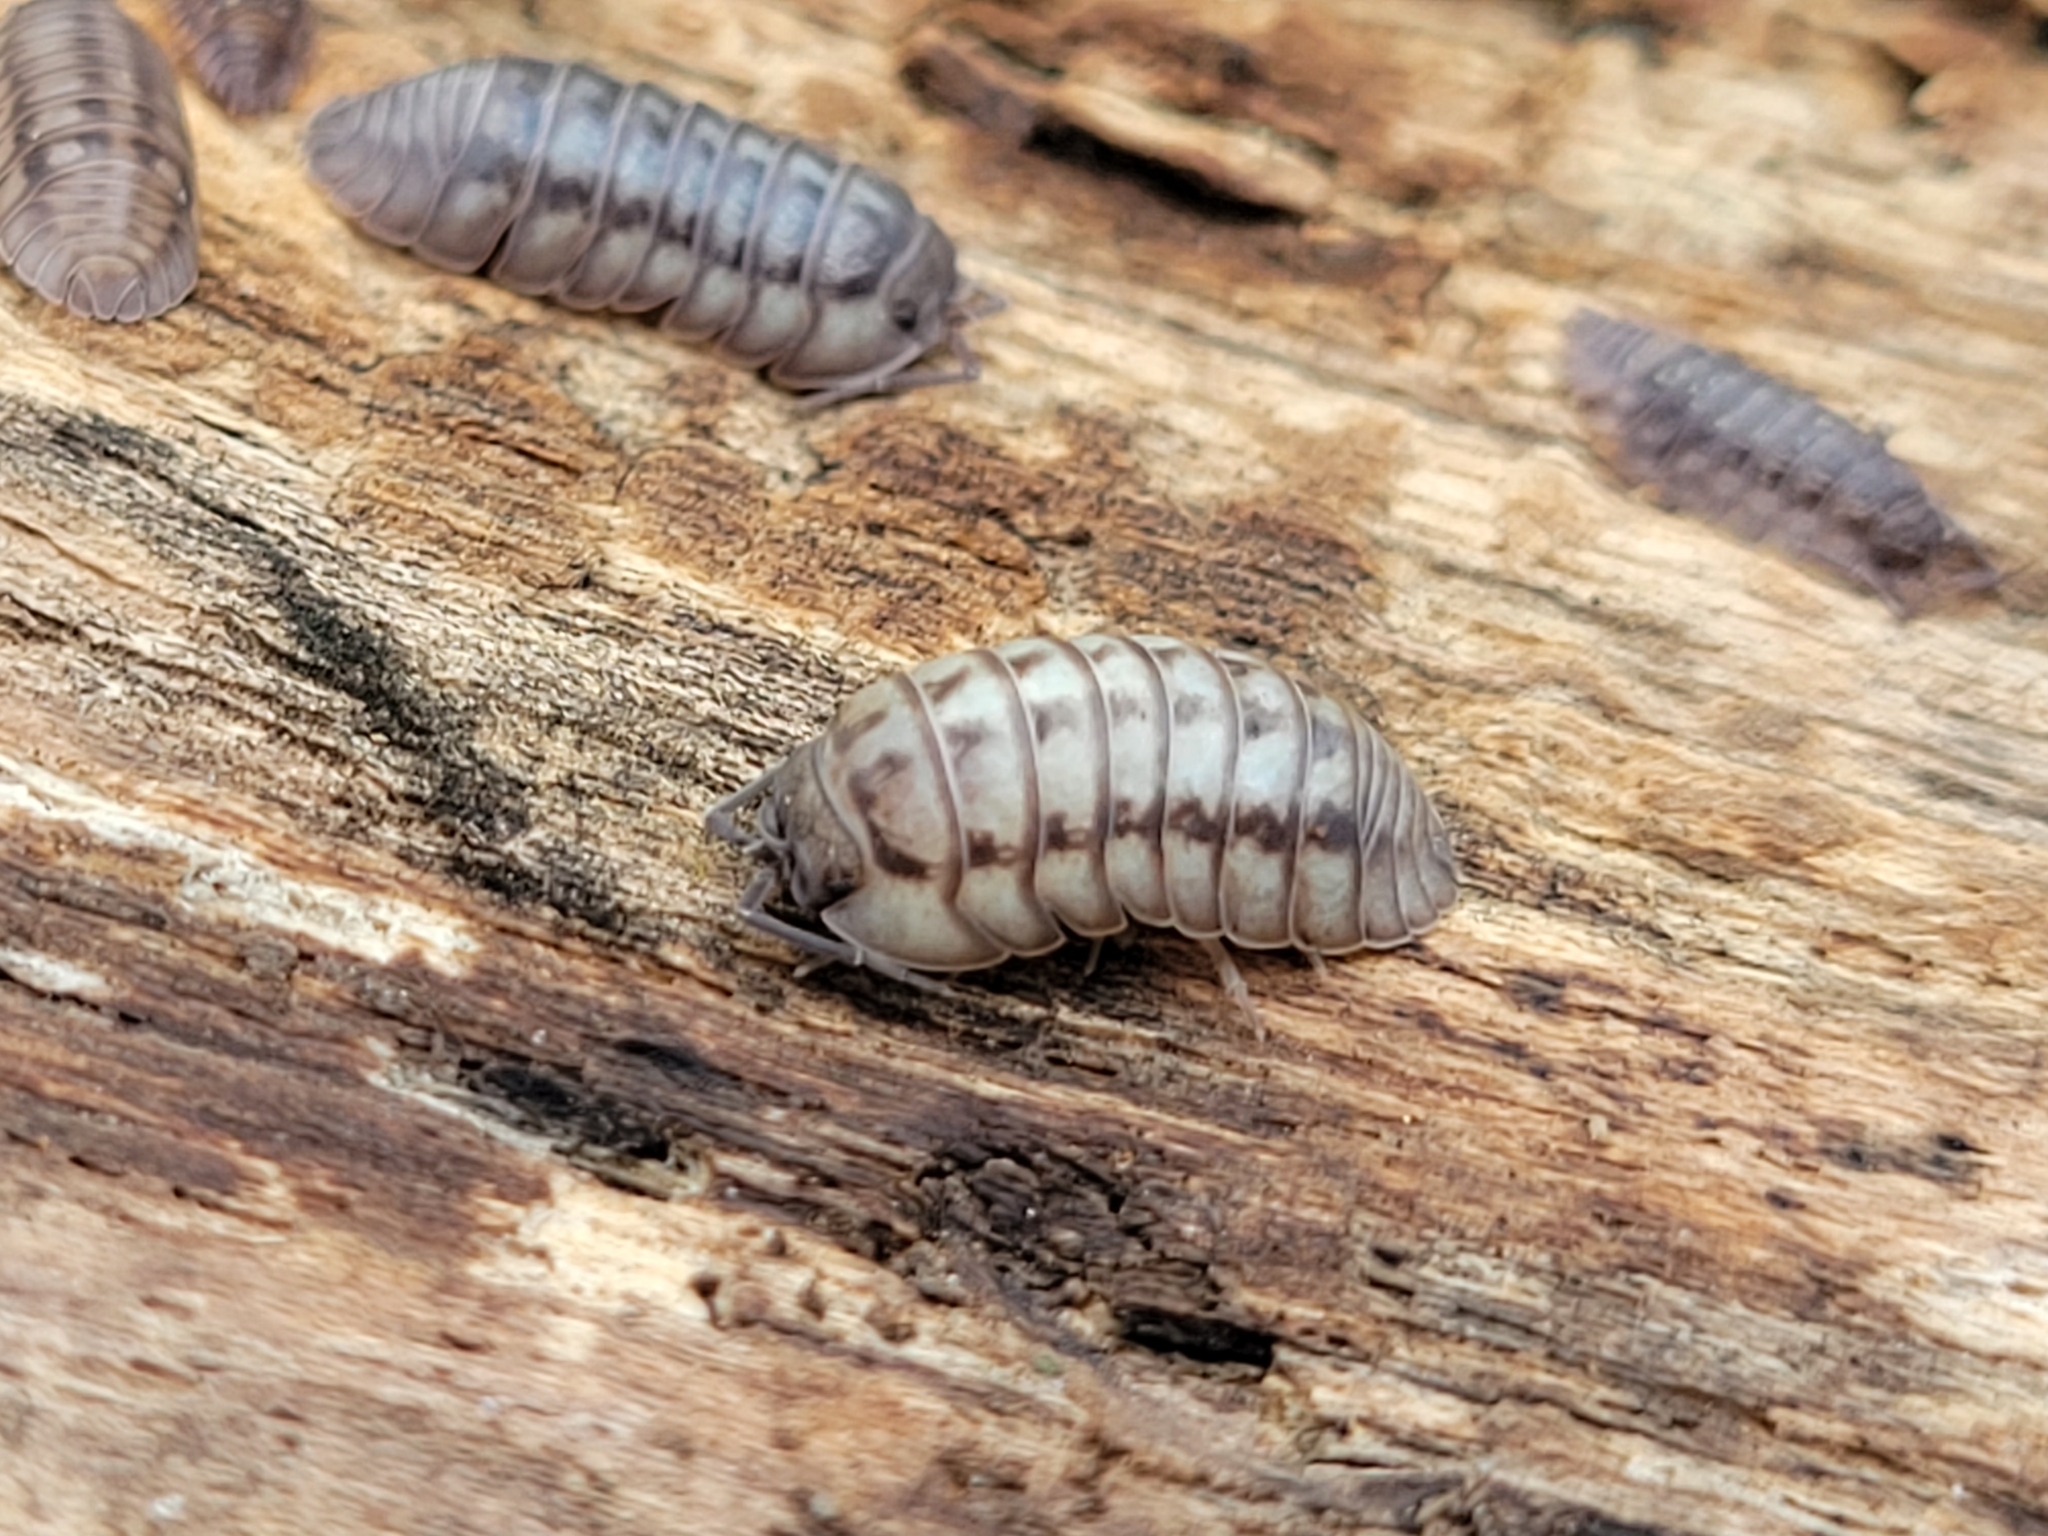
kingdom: Animalia
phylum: Arthropoda
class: Malacostraca
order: Isopoda
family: Armadillidiidae
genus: Armadillidium
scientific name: Armadillidium nasatum
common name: Isopod
